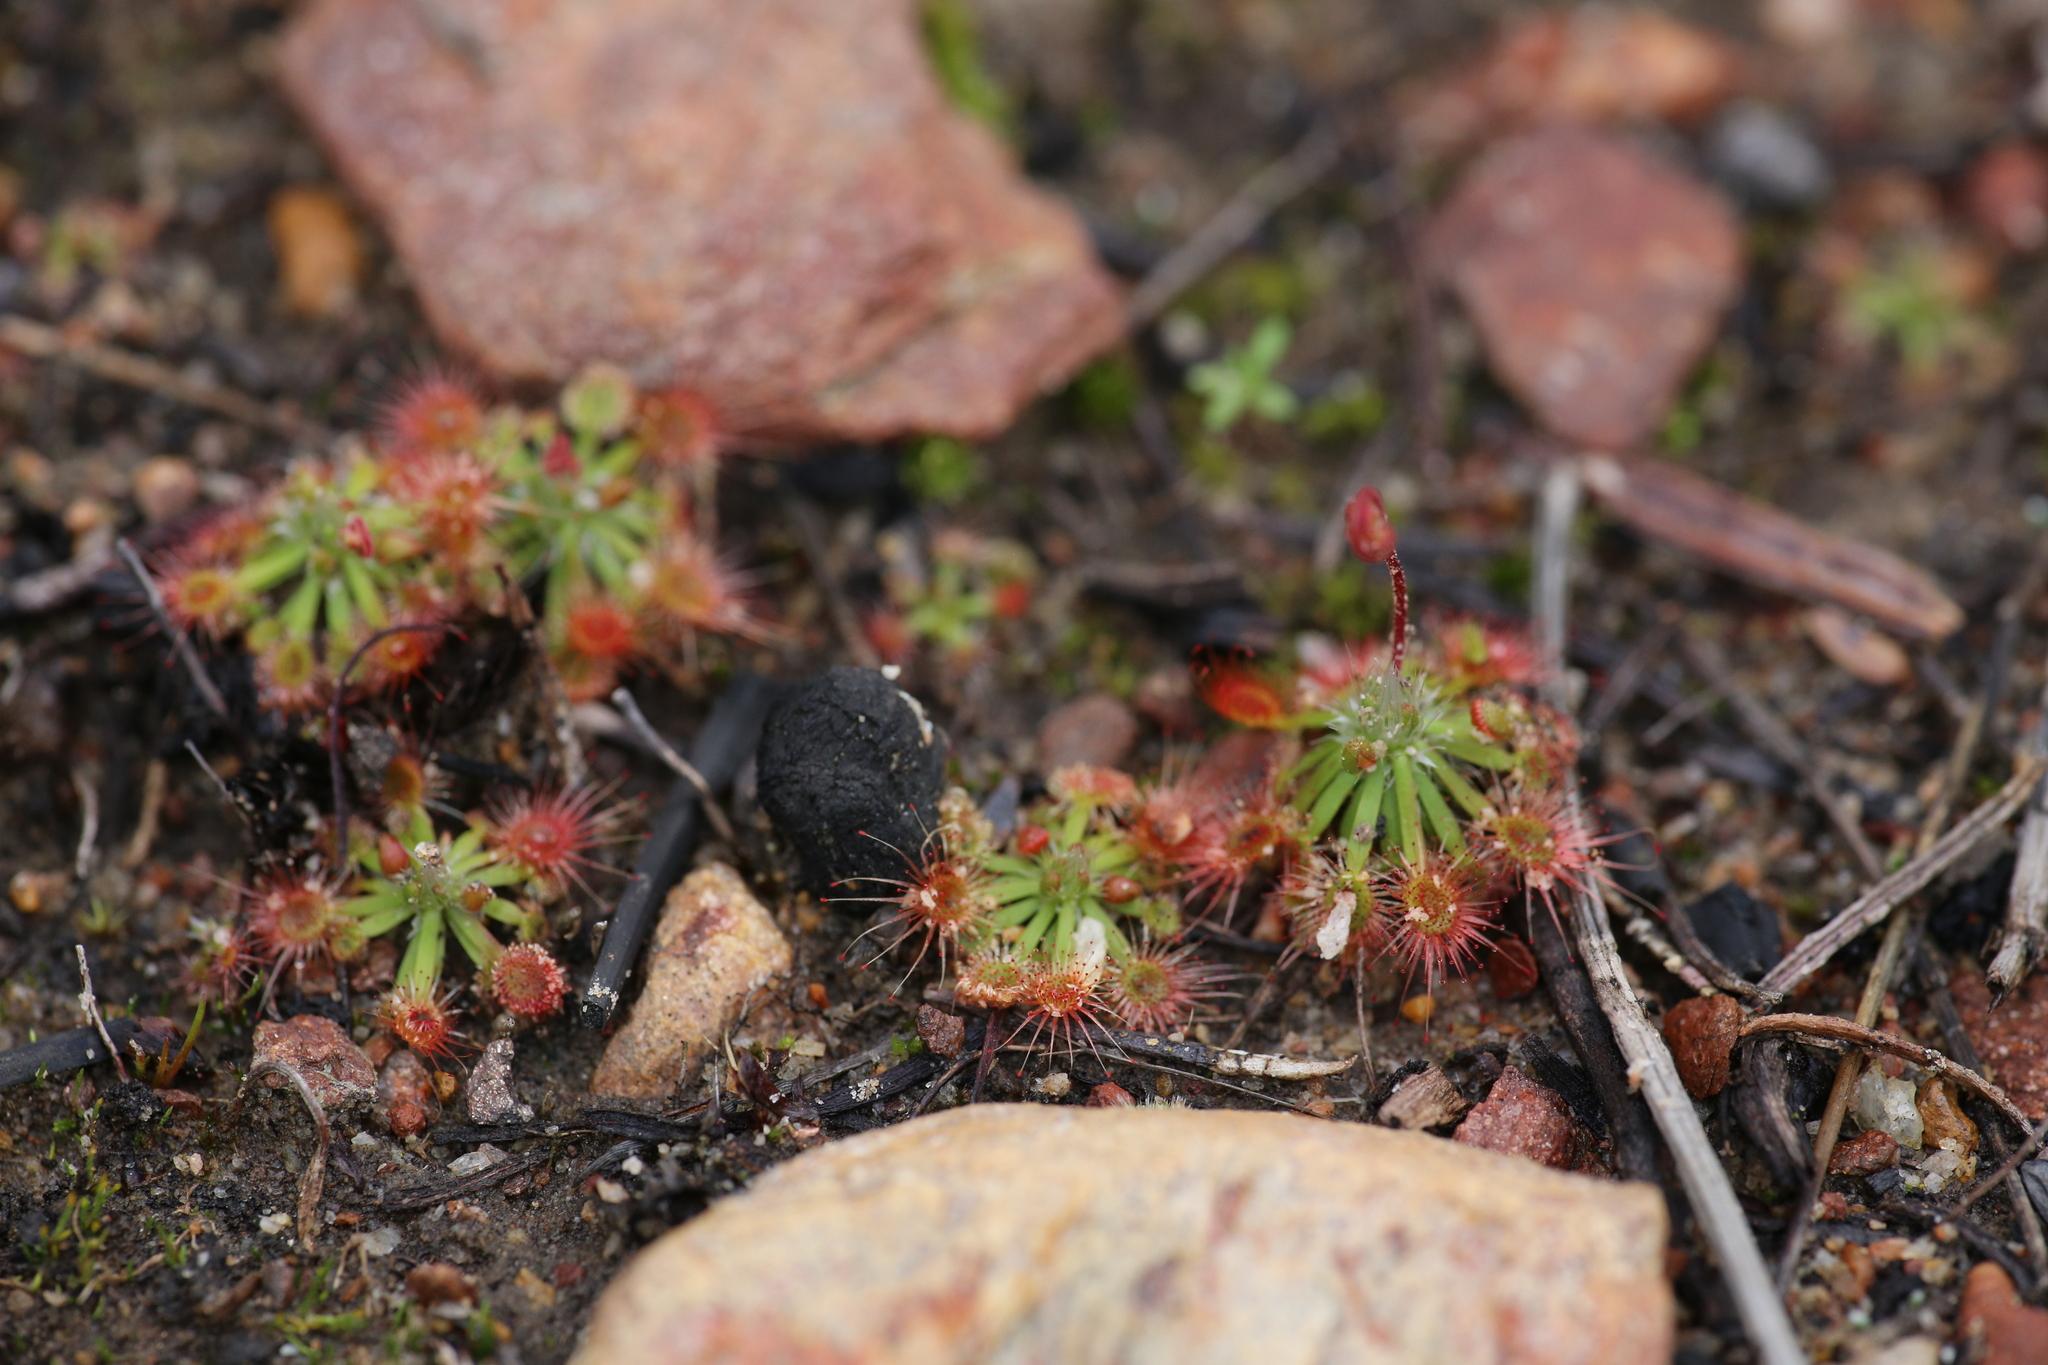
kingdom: Plantae
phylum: Tracheophyta
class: Magnoliopsida
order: Caryophyllales
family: Droseraceae
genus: Drosera
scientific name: Drosera spilos
